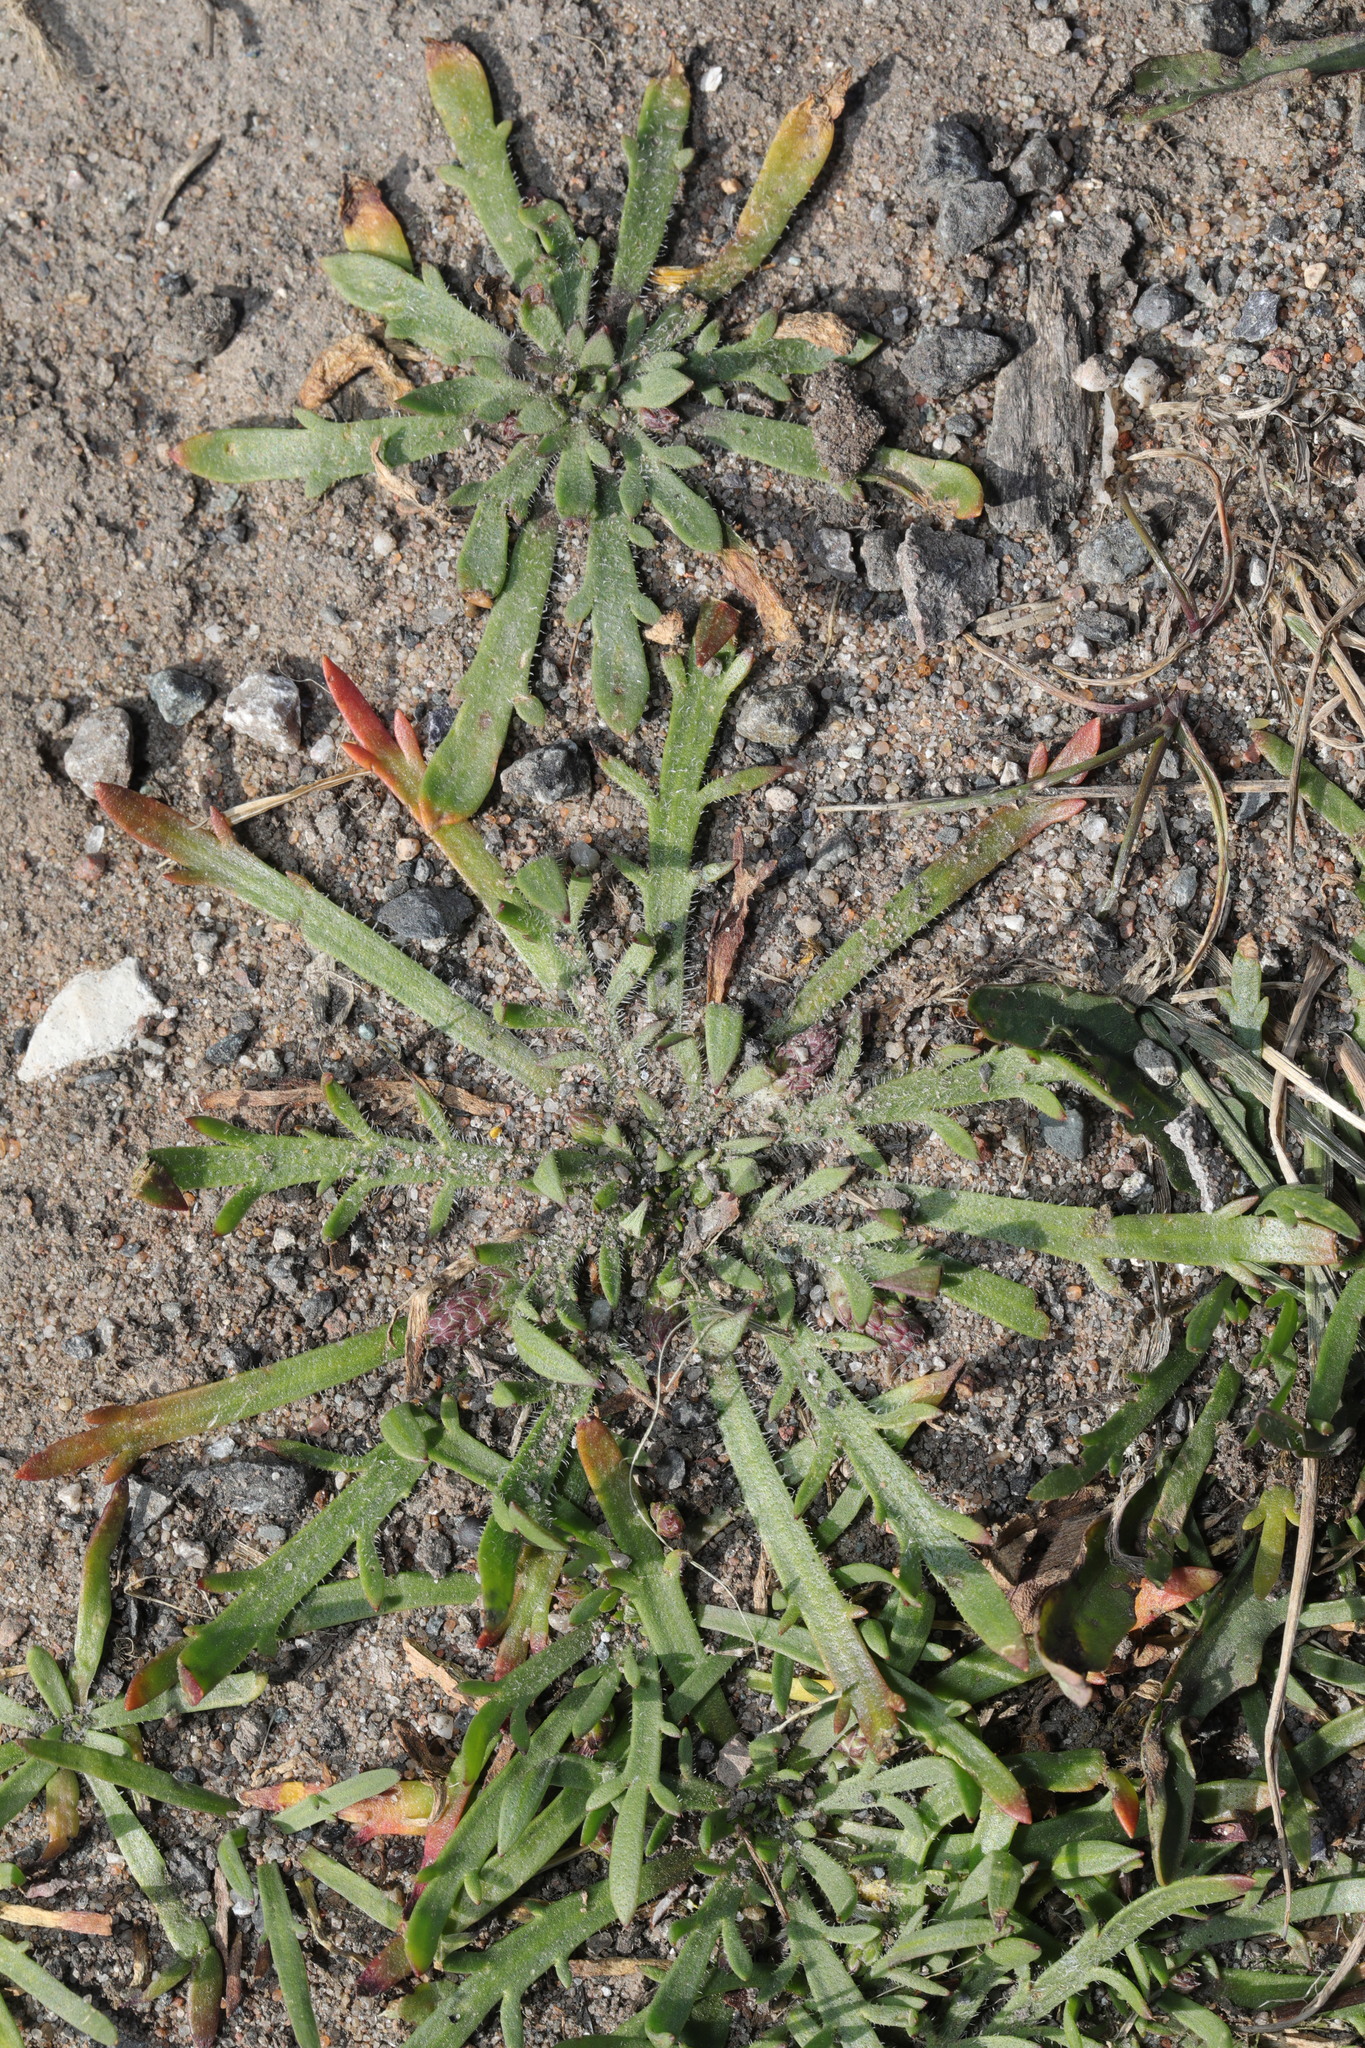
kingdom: Plantae
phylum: Tracheophyta
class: Magnoliopsida
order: Lamiales
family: Plantaginaceae
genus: Plantago
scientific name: Plantago coronopus
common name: Buck's-horn plantain
